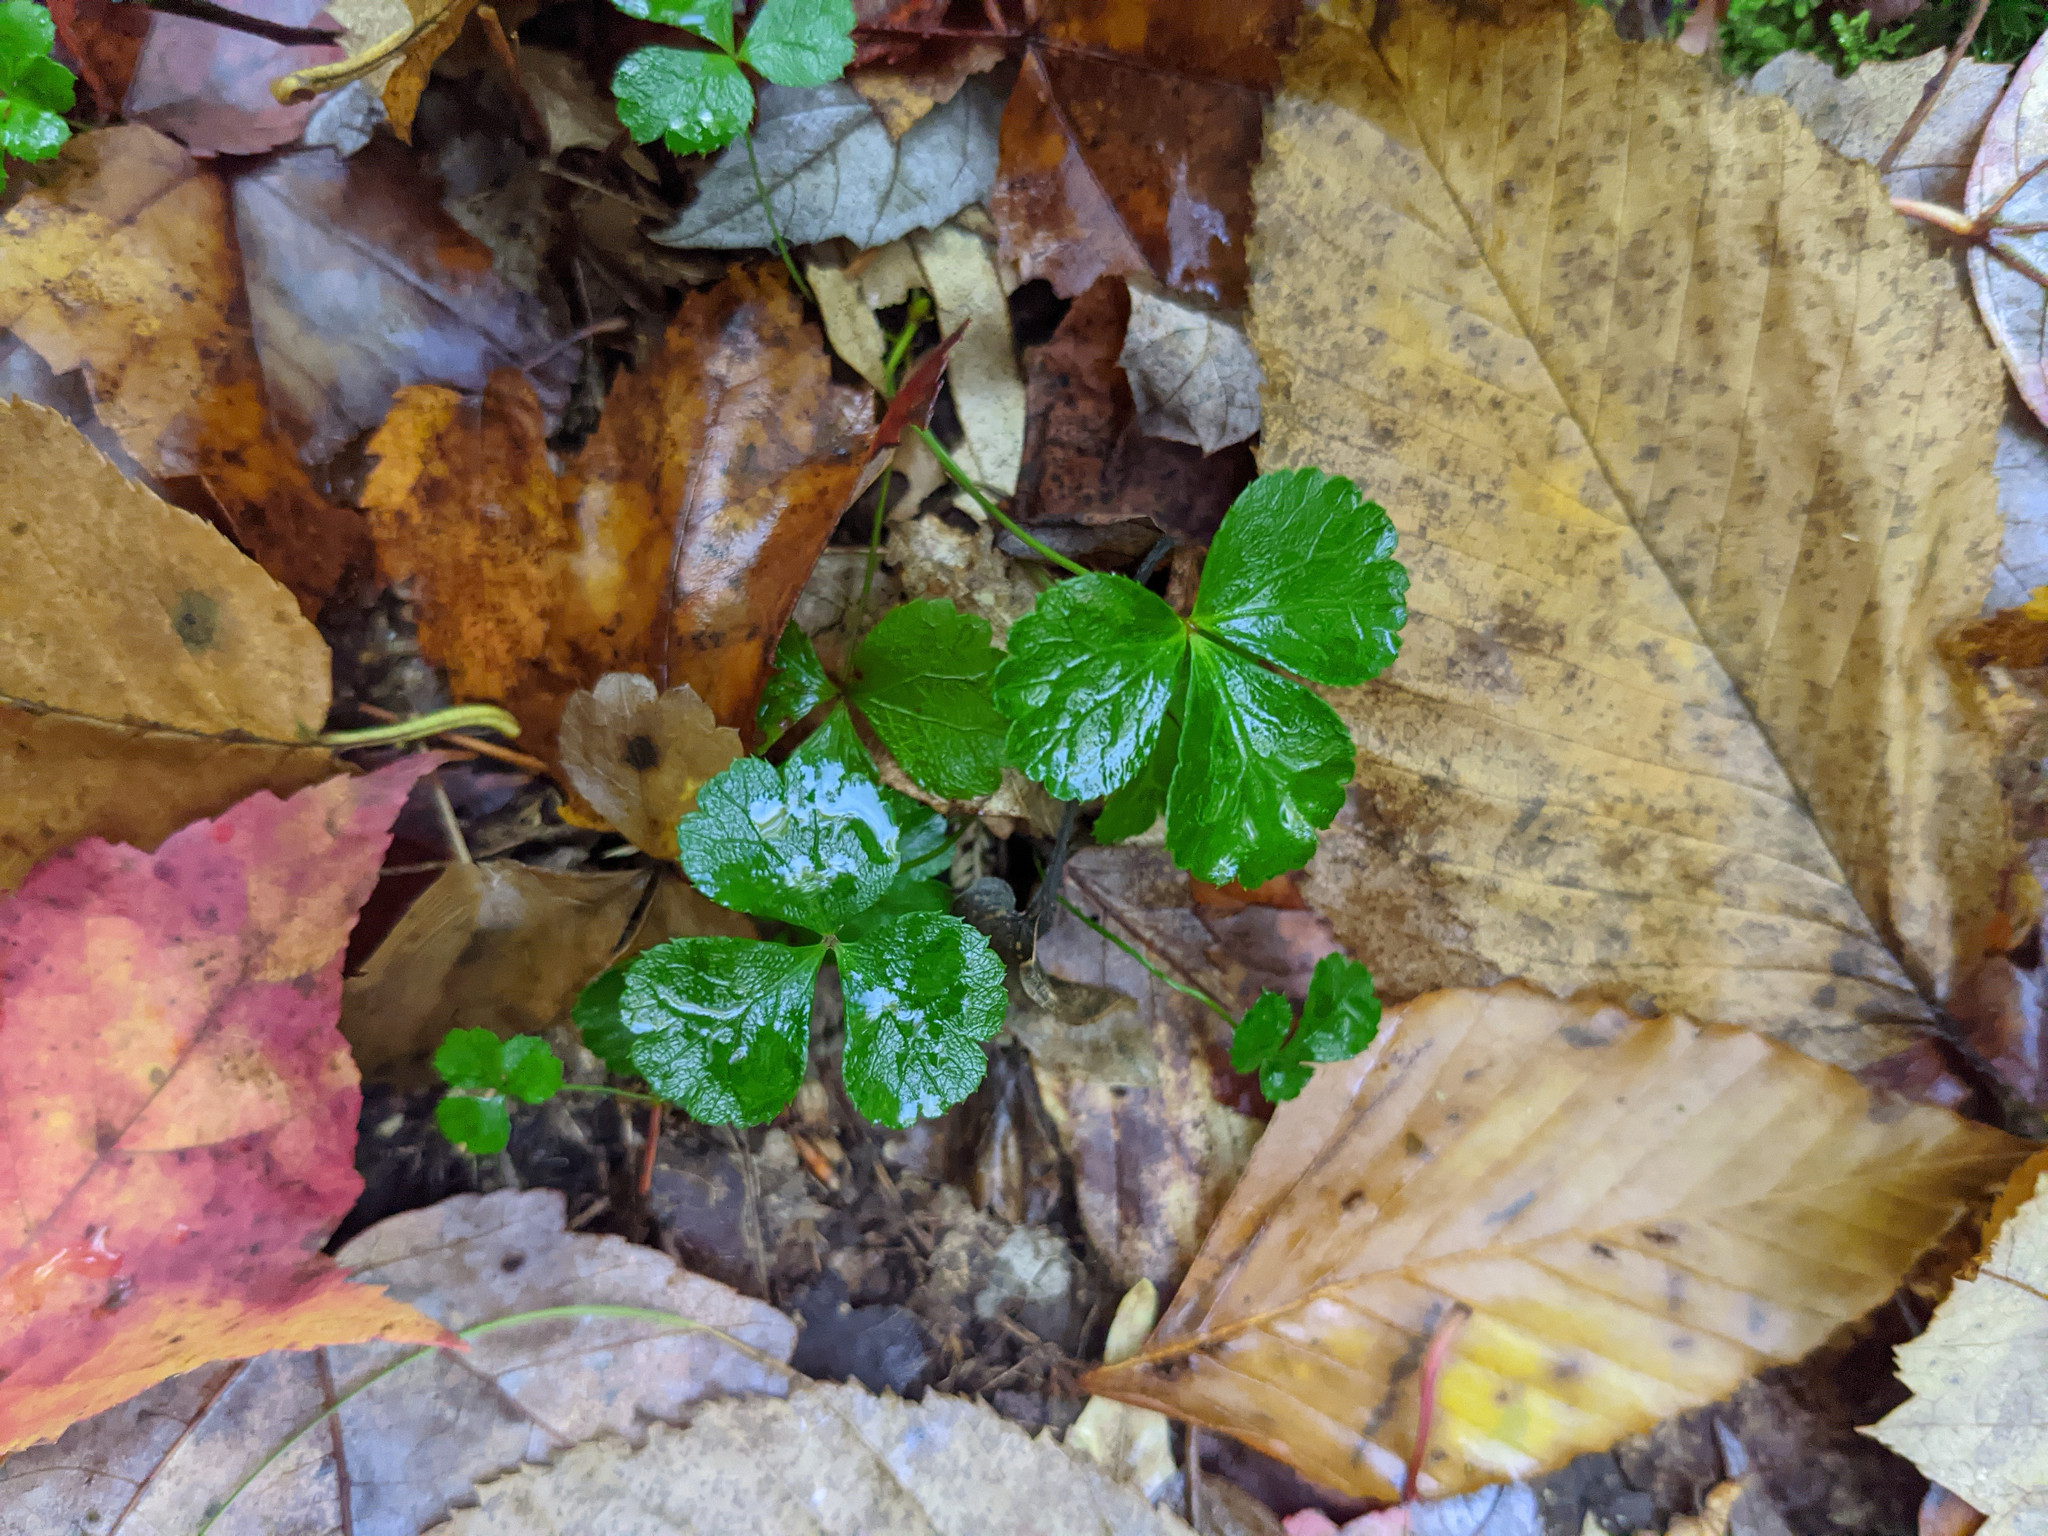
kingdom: Plantae
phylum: Tracheophyta
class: Magnoliopsida
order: Ranunculales
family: Ranunculaceae
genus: Coptis
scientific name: Coptis trifolia
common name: Canker-root
